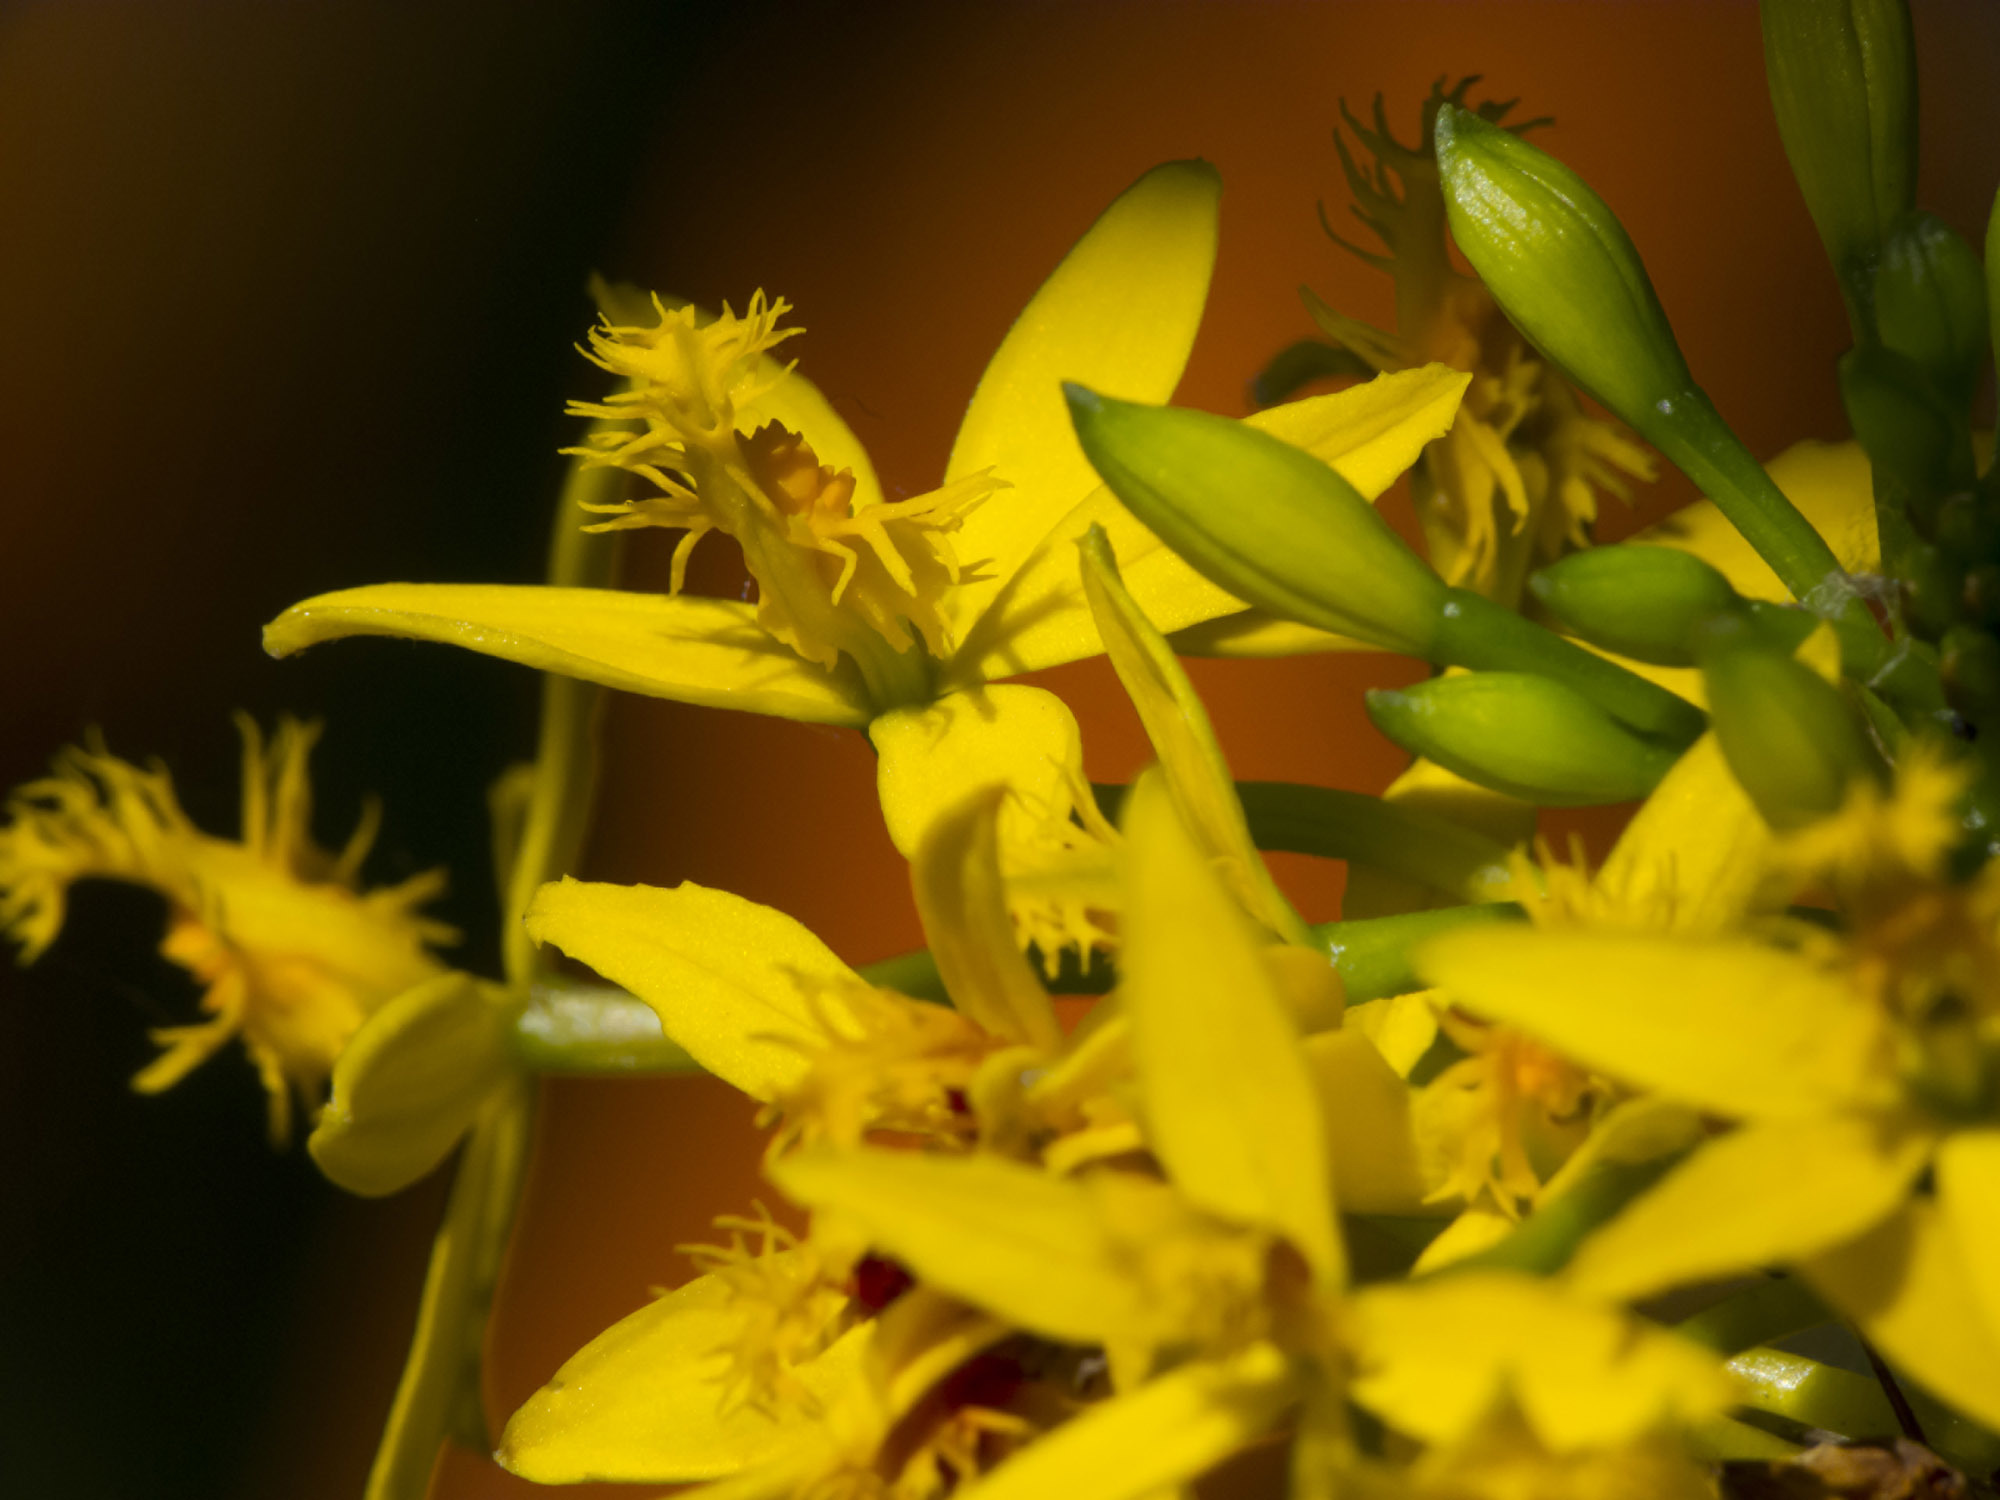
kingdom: Plantae
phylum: Tracheophyta
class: Liliopsida
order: Asparagales
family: Orchidaceae
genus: Epidendrum
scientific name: Epidendrum aura-usecheae
